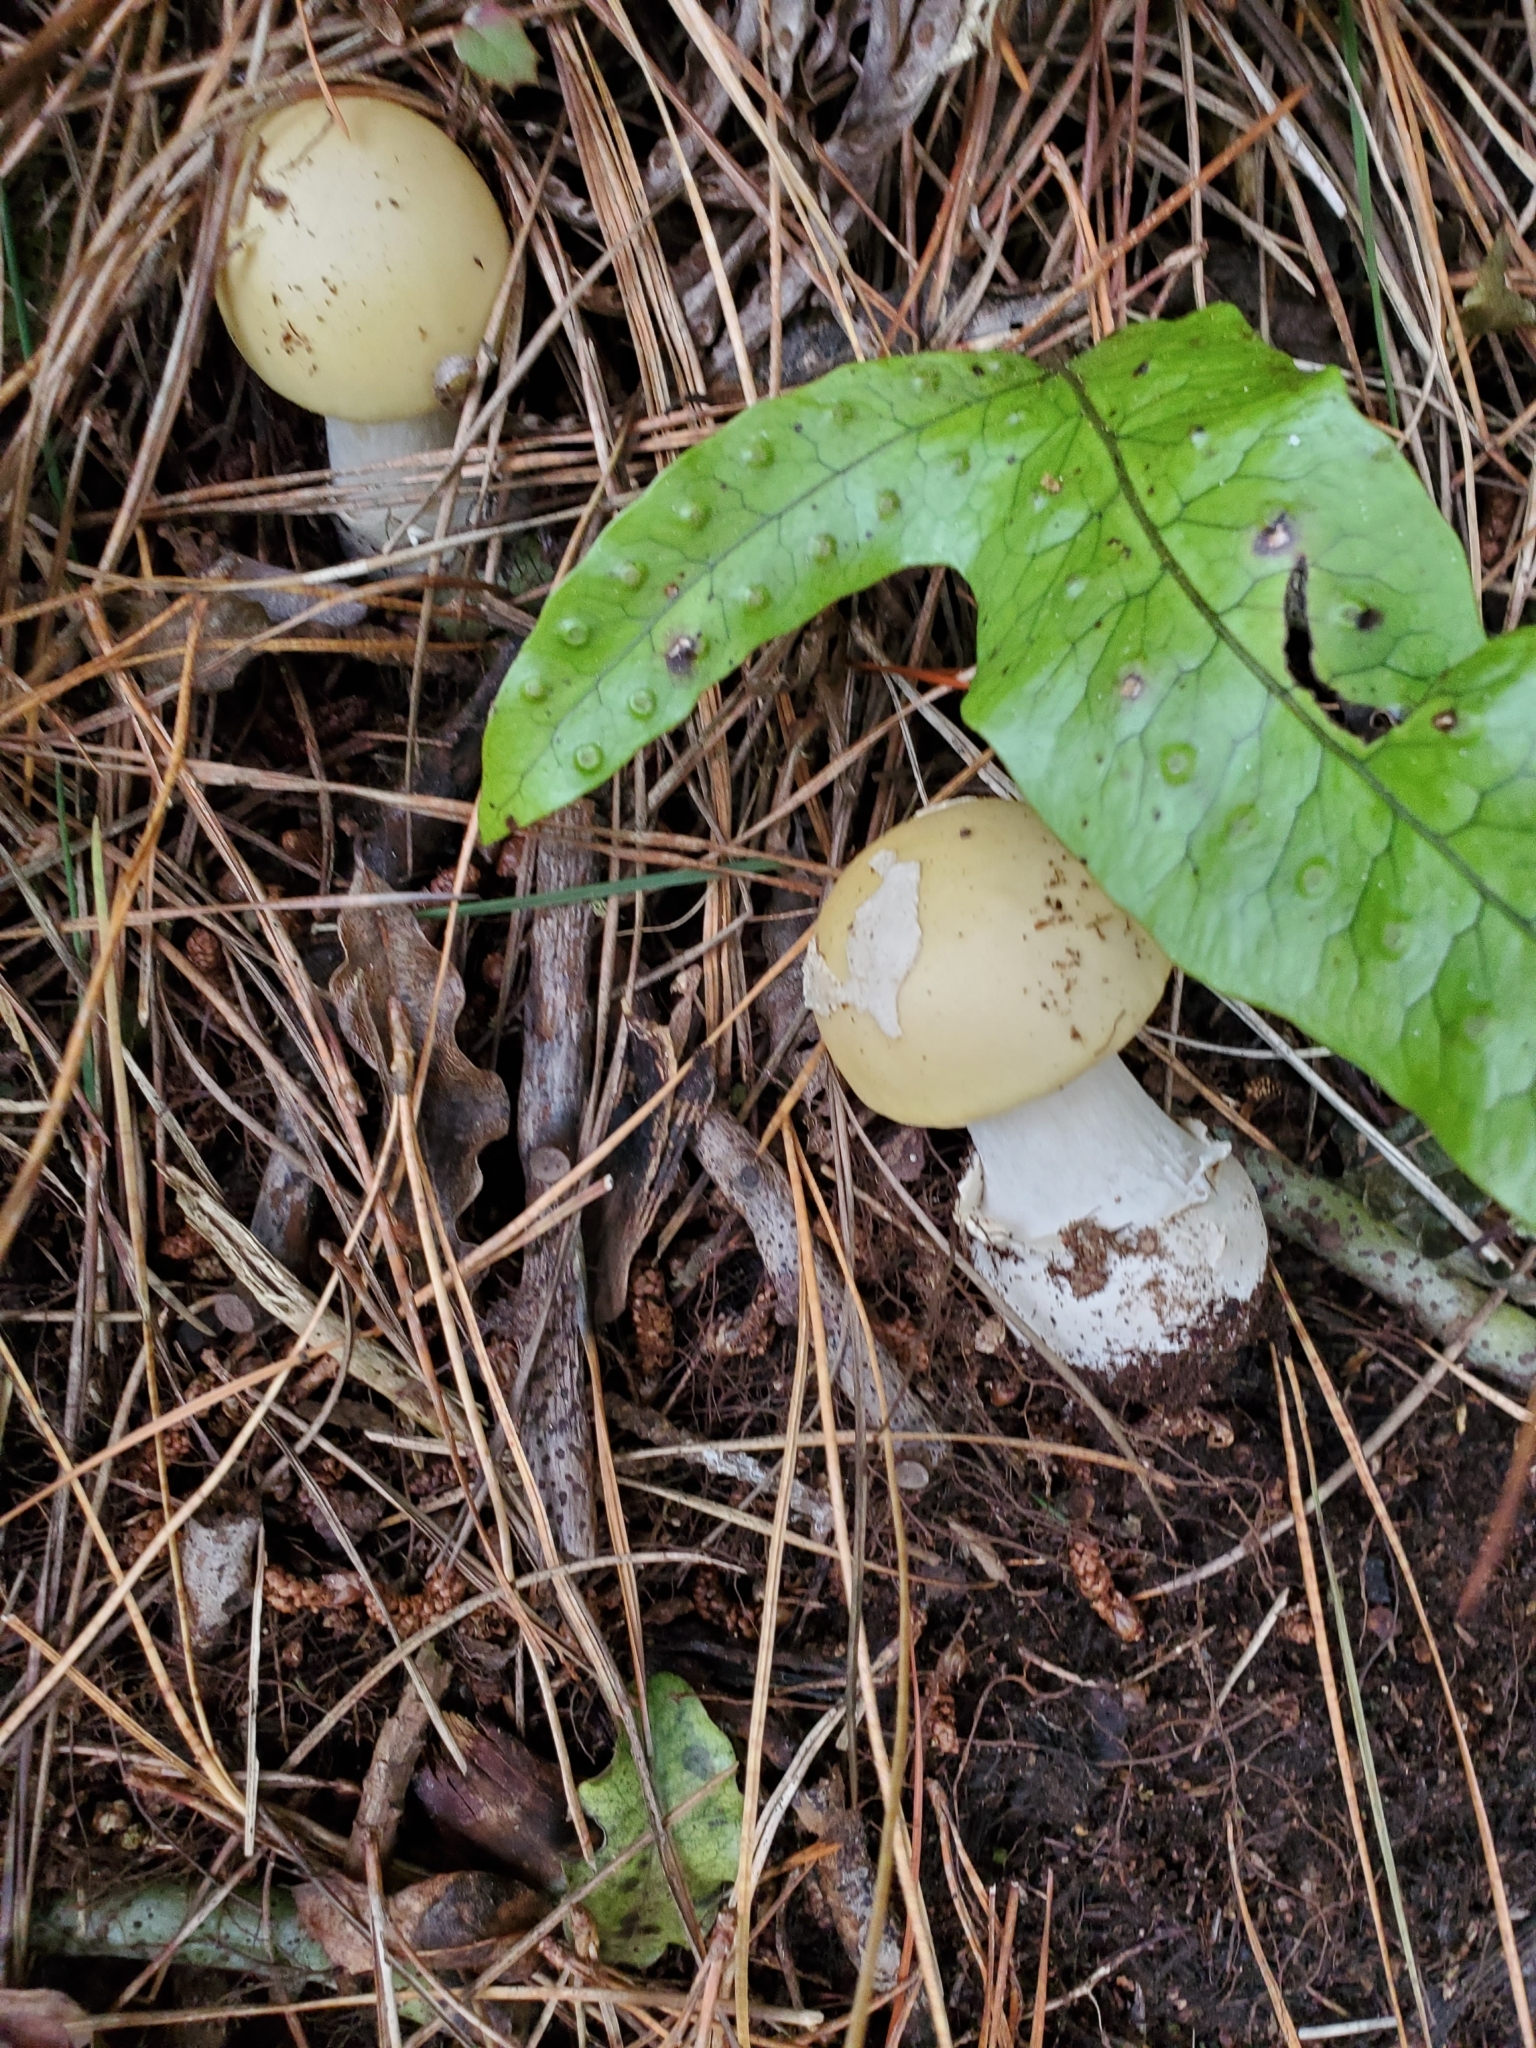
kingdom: Fungi
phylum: Basidiomycota
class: Agaricomycetes
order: Agaricales
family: Amanitaceae
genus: Amanita
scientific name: Amanita gemmata
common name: Jewelled amanita
